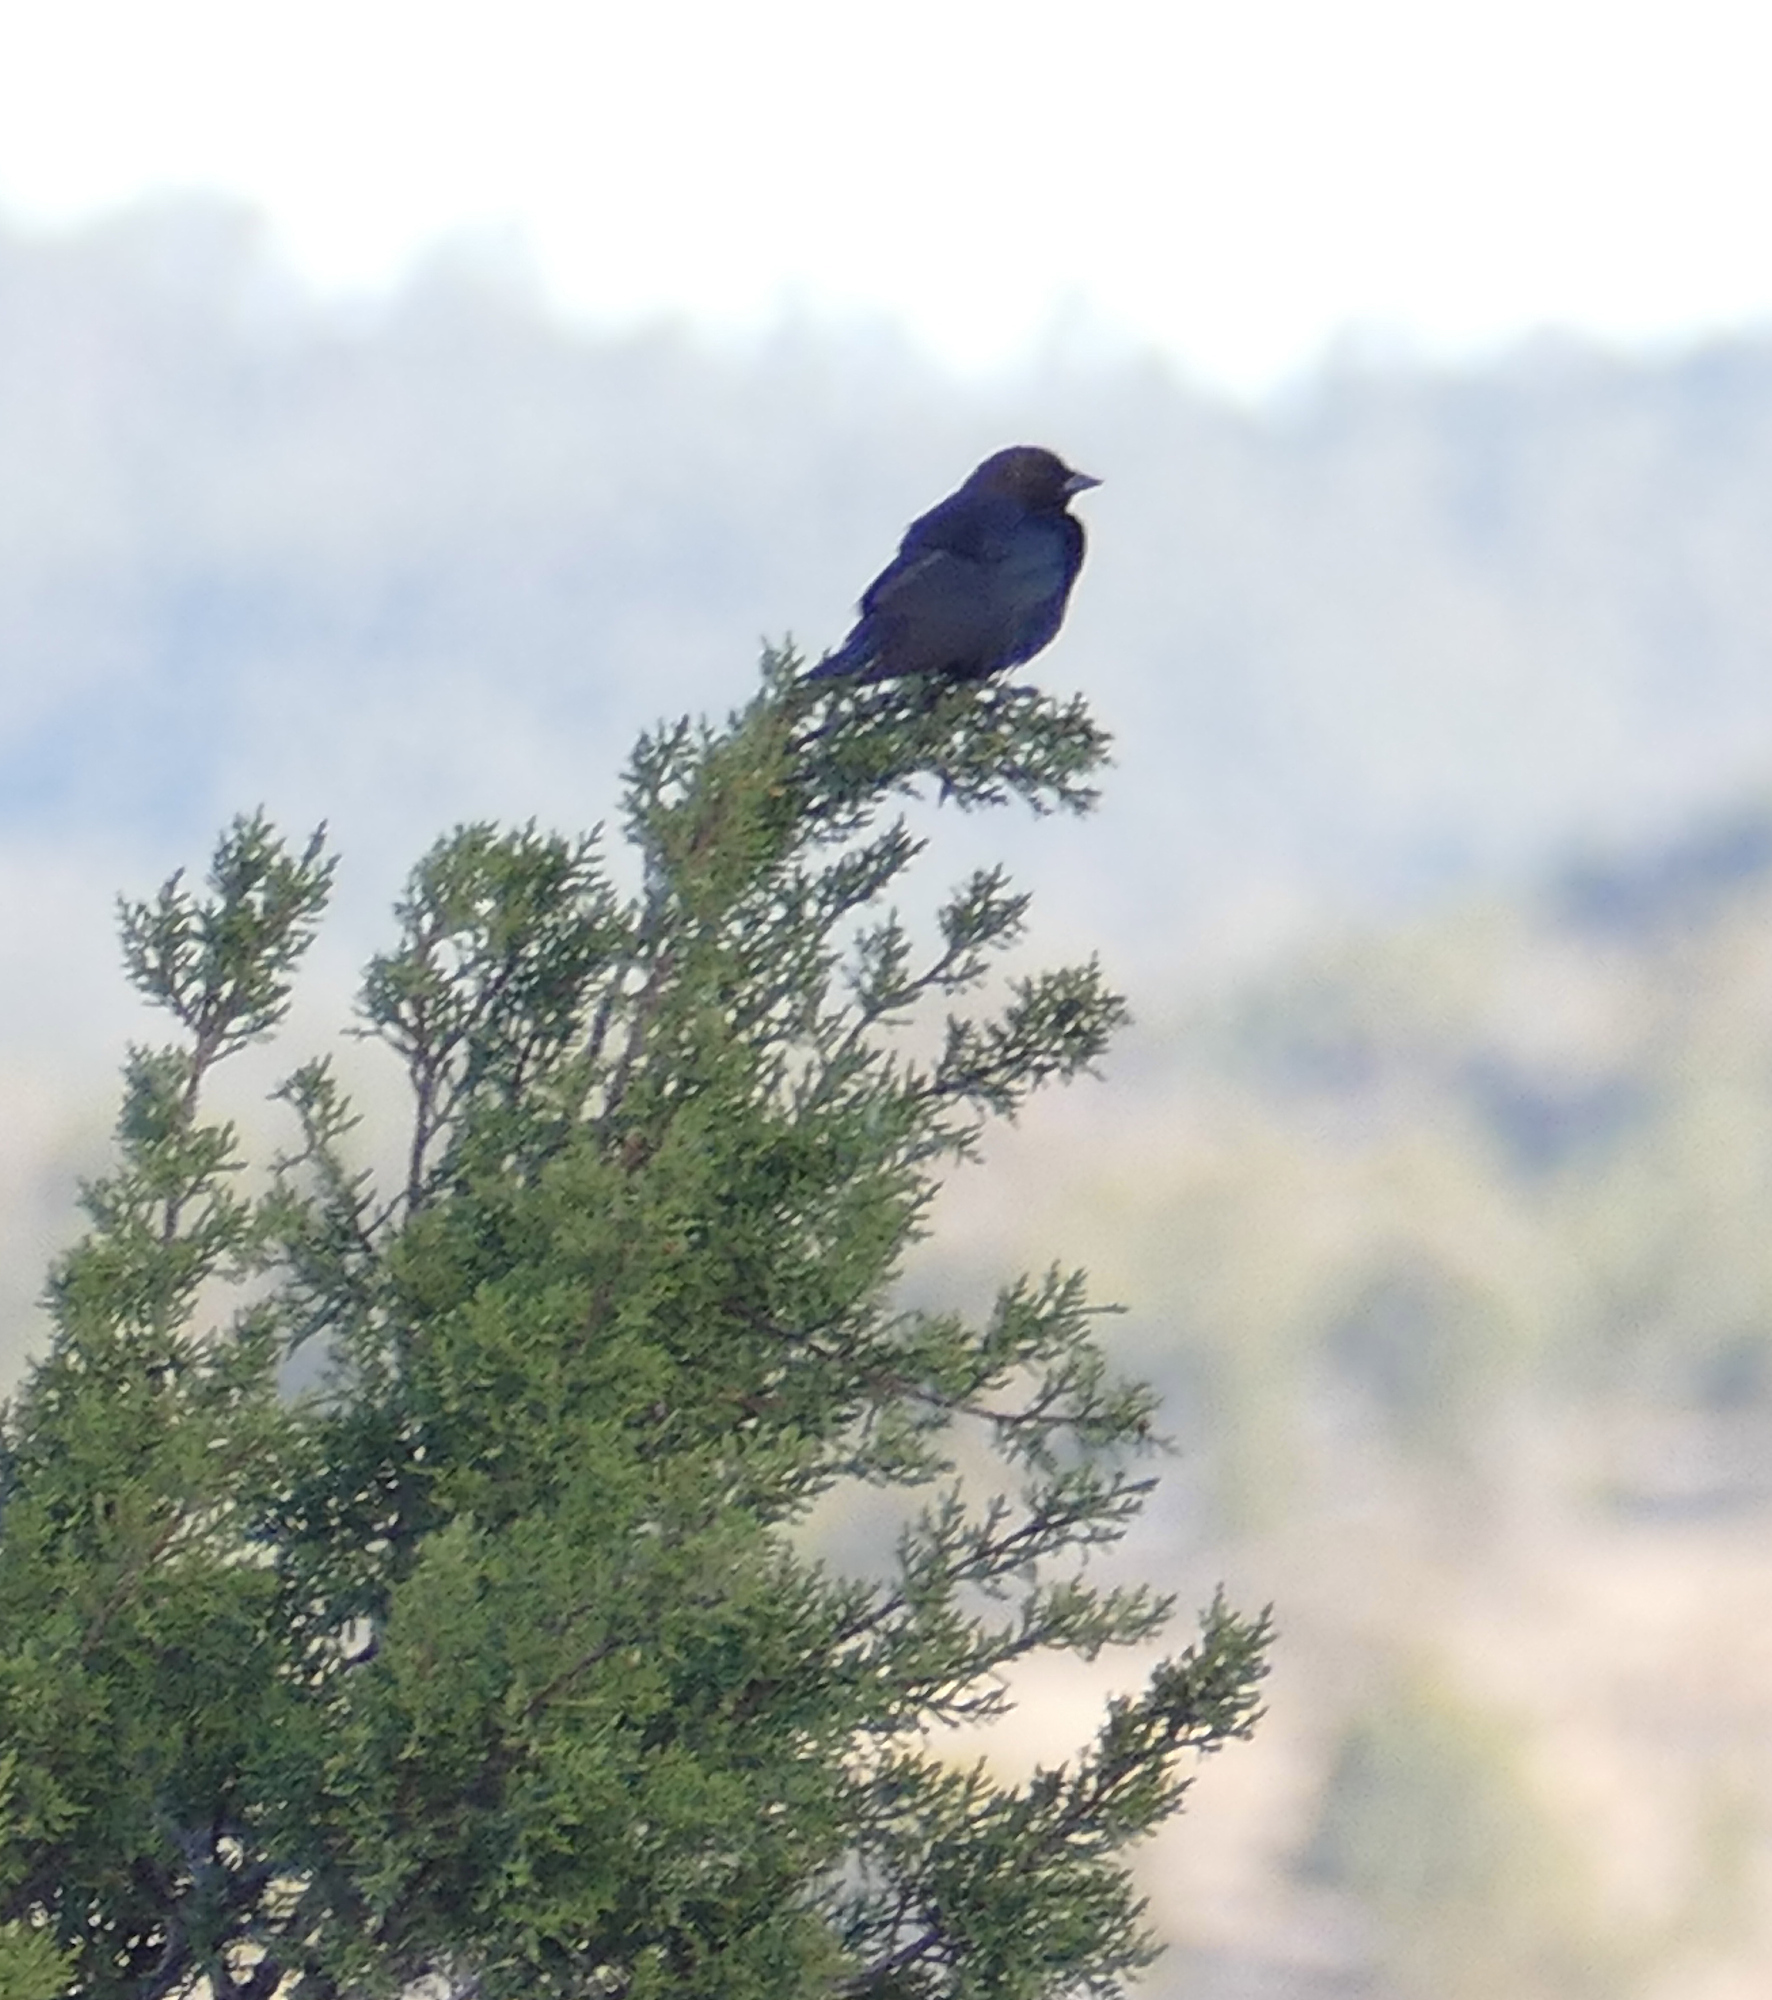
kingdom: Animalia
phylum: Chordata
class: Aves
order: Passeriformes
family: Icteridae
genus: Molothrus
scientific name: Molothrus ater
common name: Brown-headed cowbird
